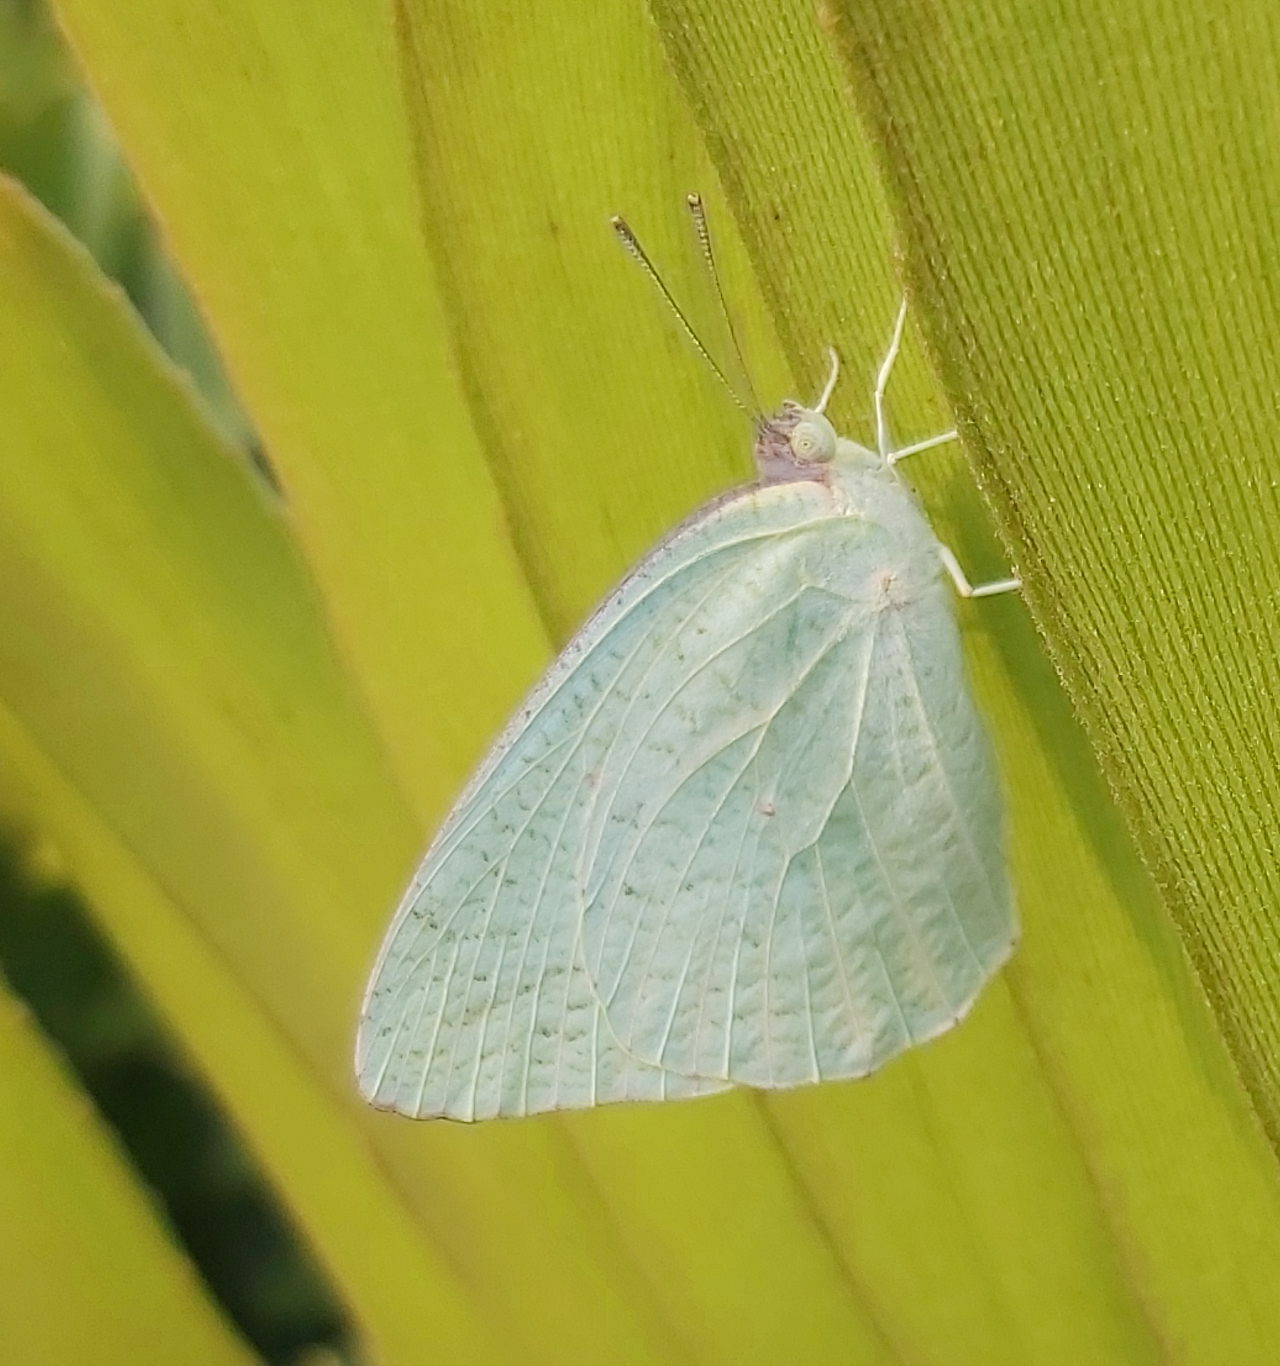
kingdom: Animalia
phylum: Arthropoda
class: Insecta
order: Lepidoptera
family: Pieridae
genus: Catopsilia
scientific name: Catopsilia florella
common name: African migrant
